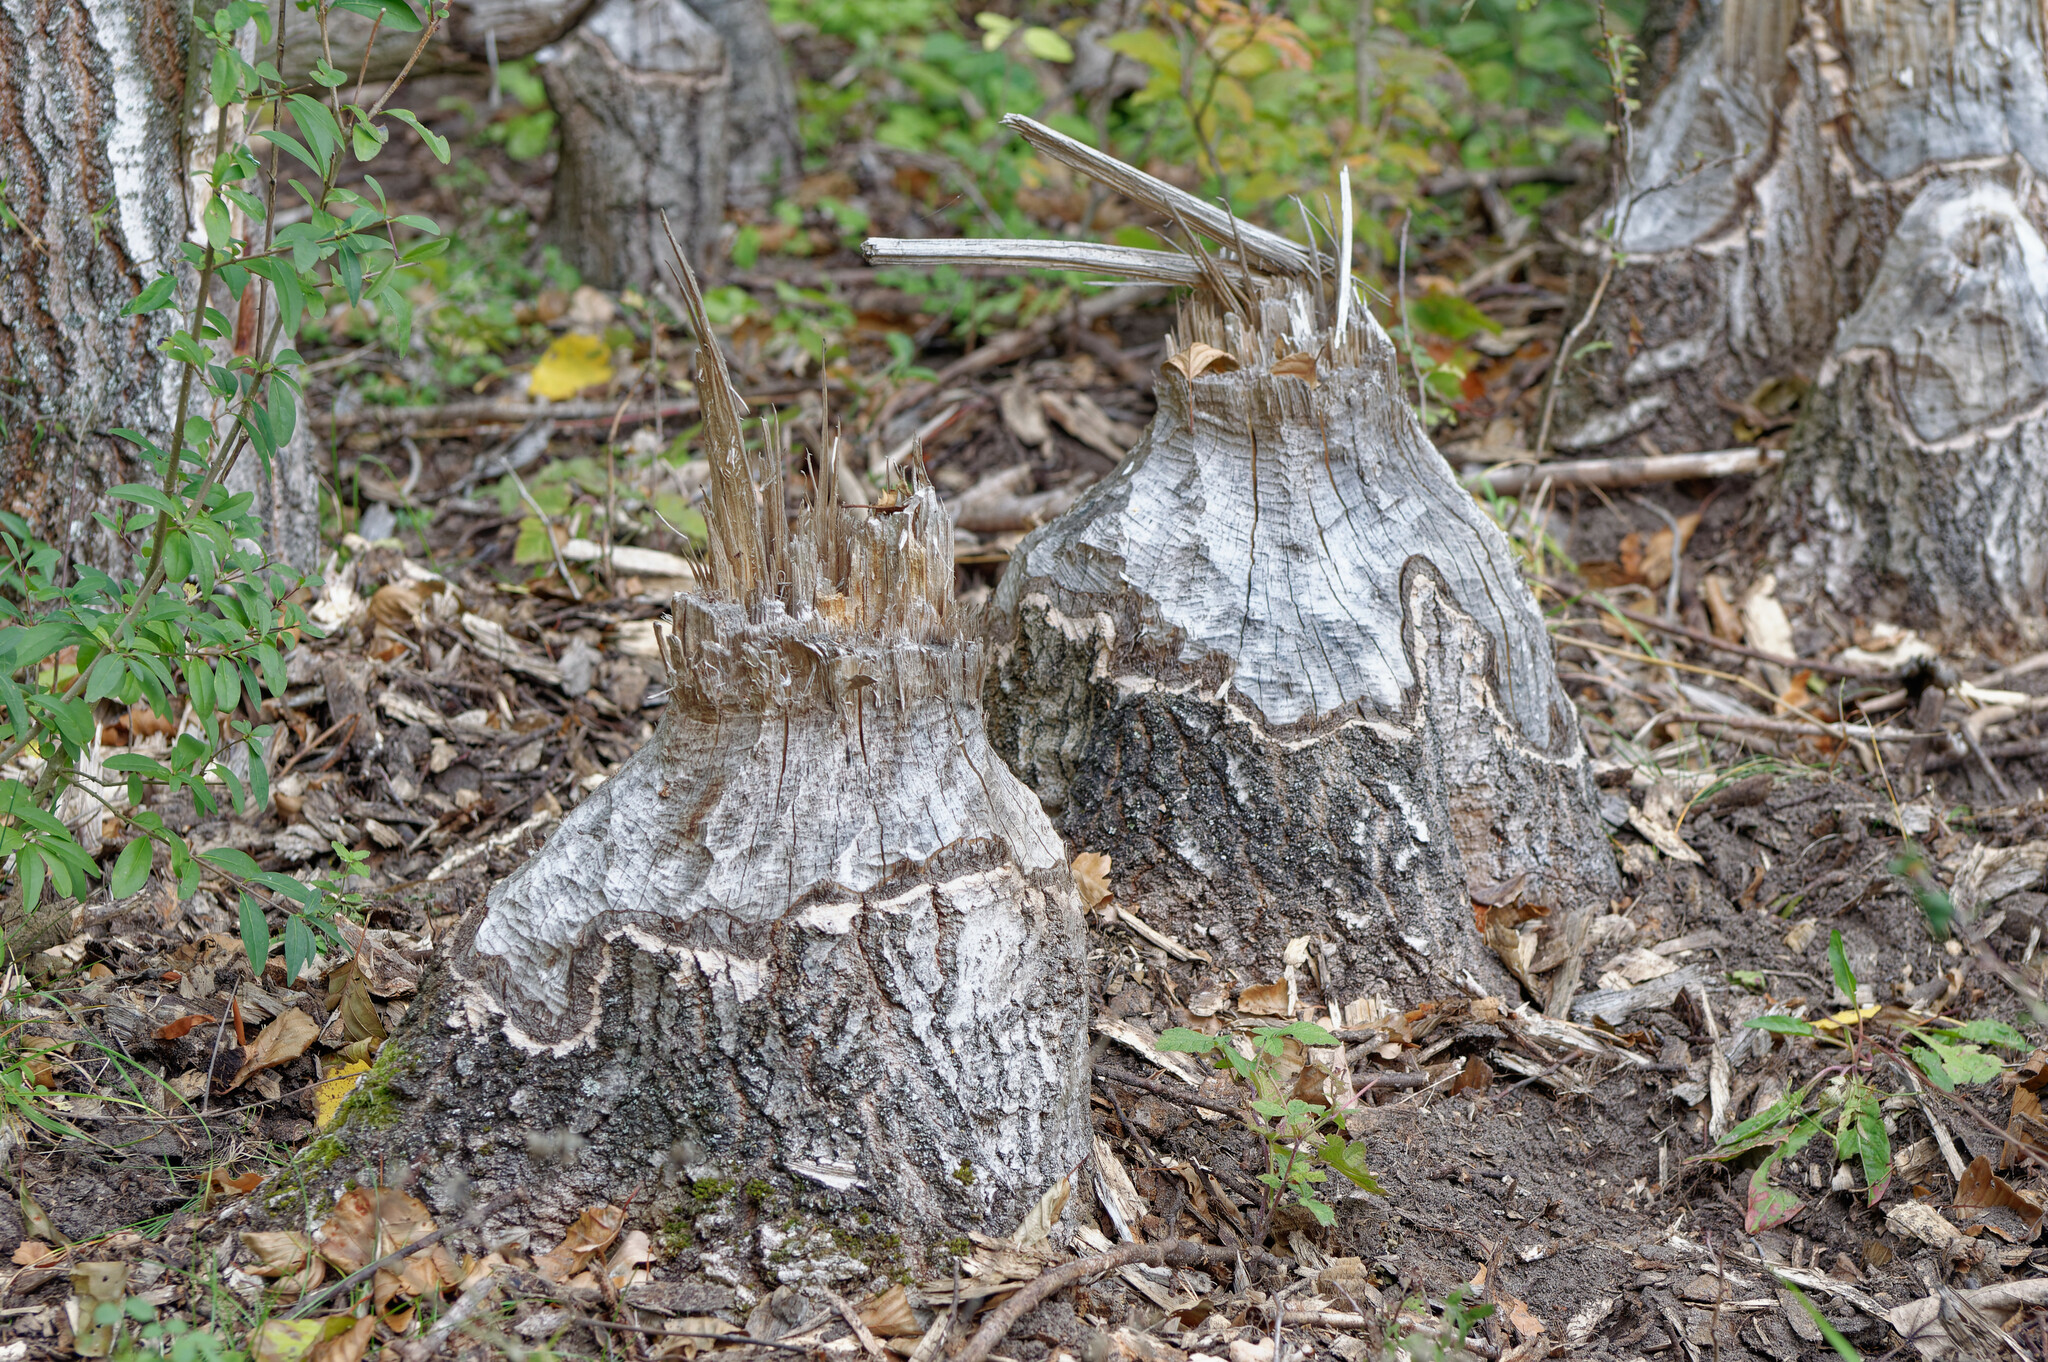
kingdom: Animalia
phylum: Chordata
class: Mammalia
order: Rodentia
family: Castoridae
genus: Castor
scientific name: Castor fiber
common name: Eurasian beaver
